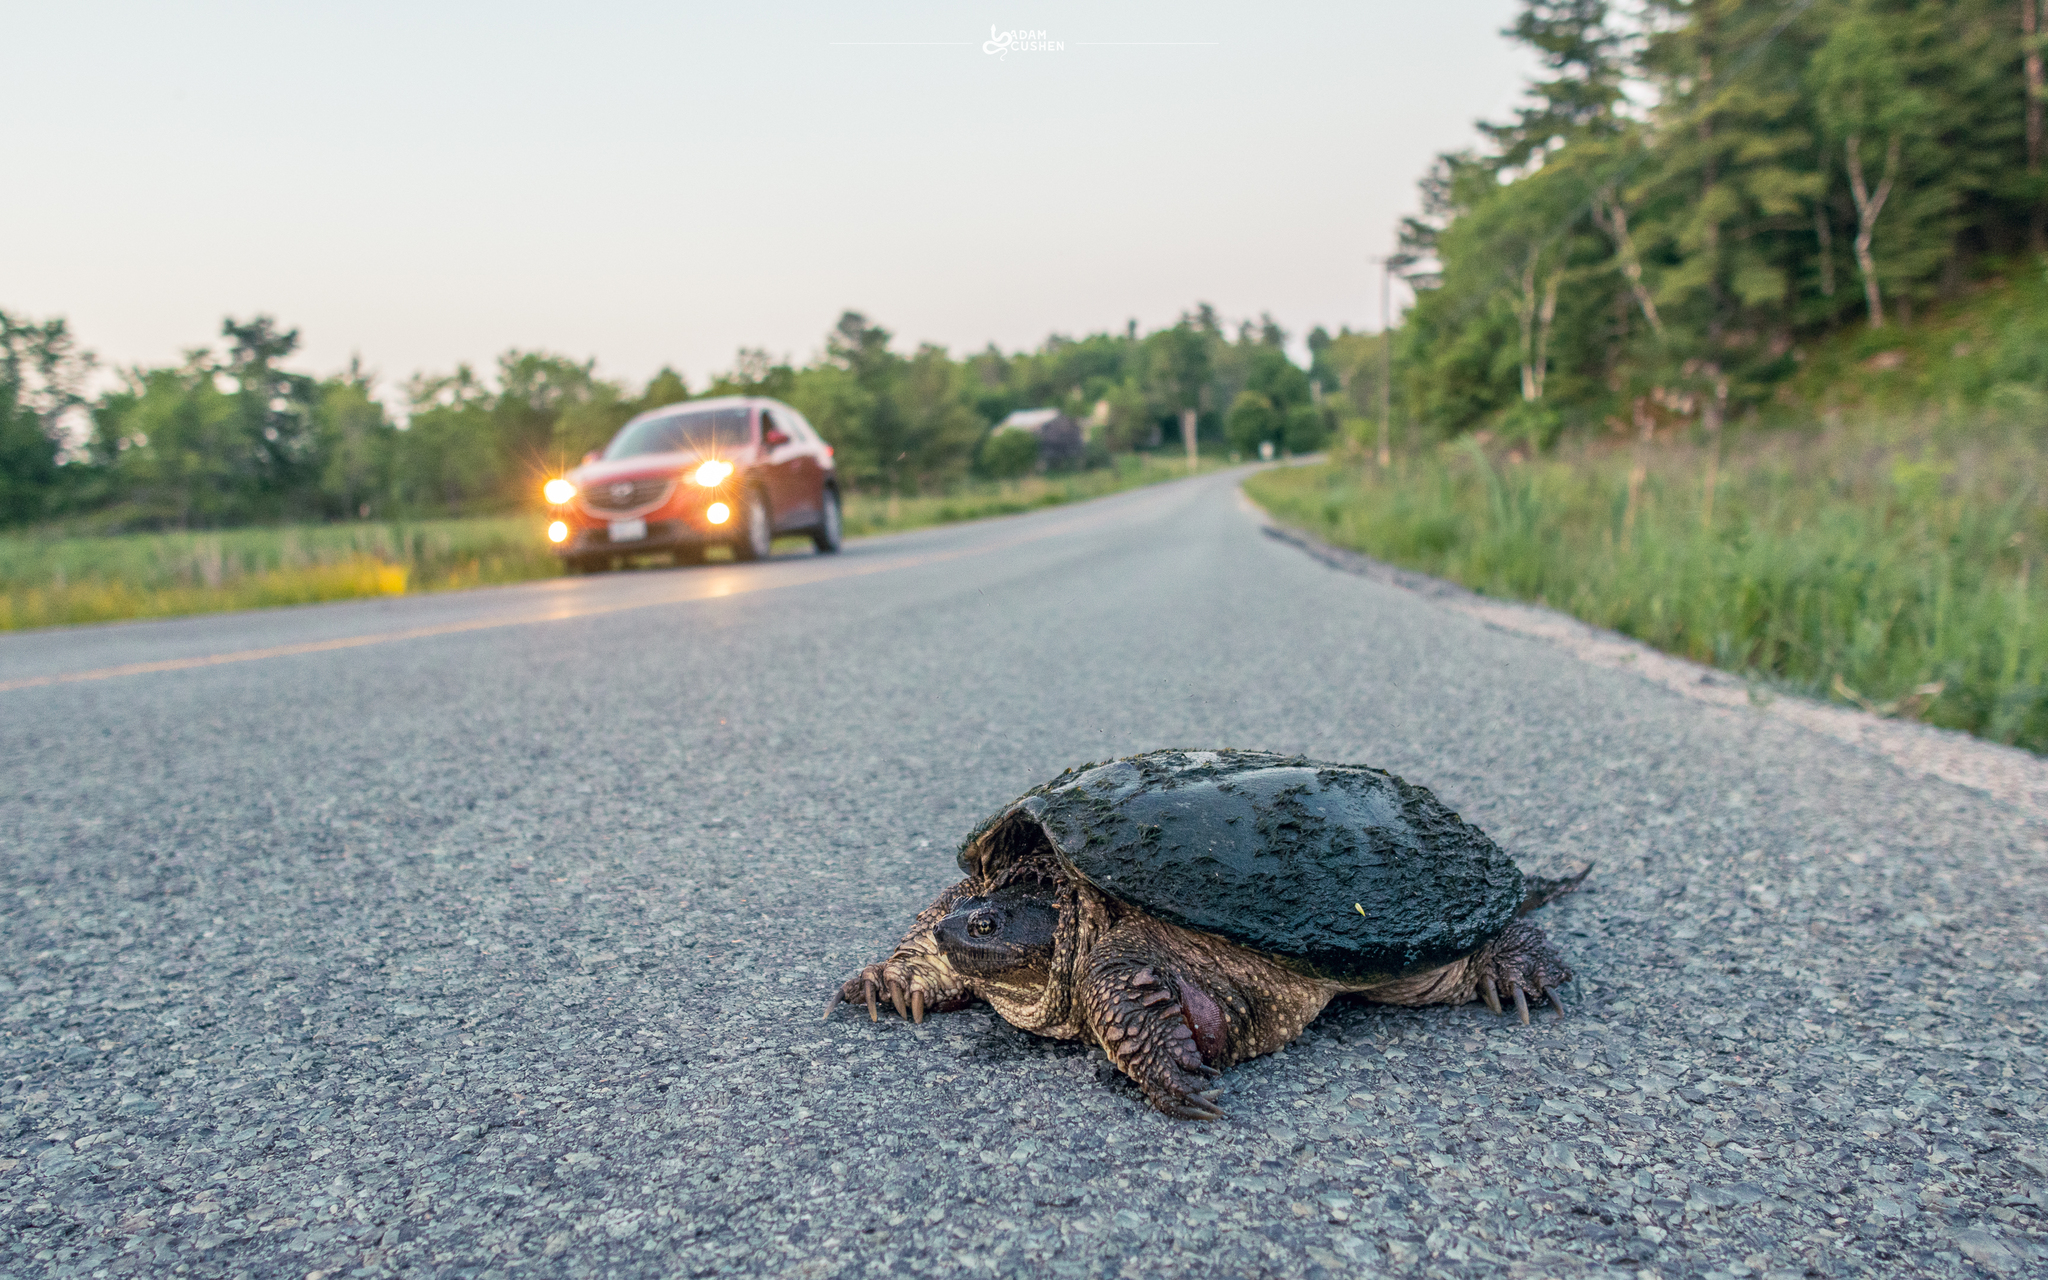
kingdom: Animalia
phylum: Chordata
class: Testudines
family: Chelydridae
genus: Chelydra
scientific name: Chelydra serpentina
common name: Common snapping turtle
